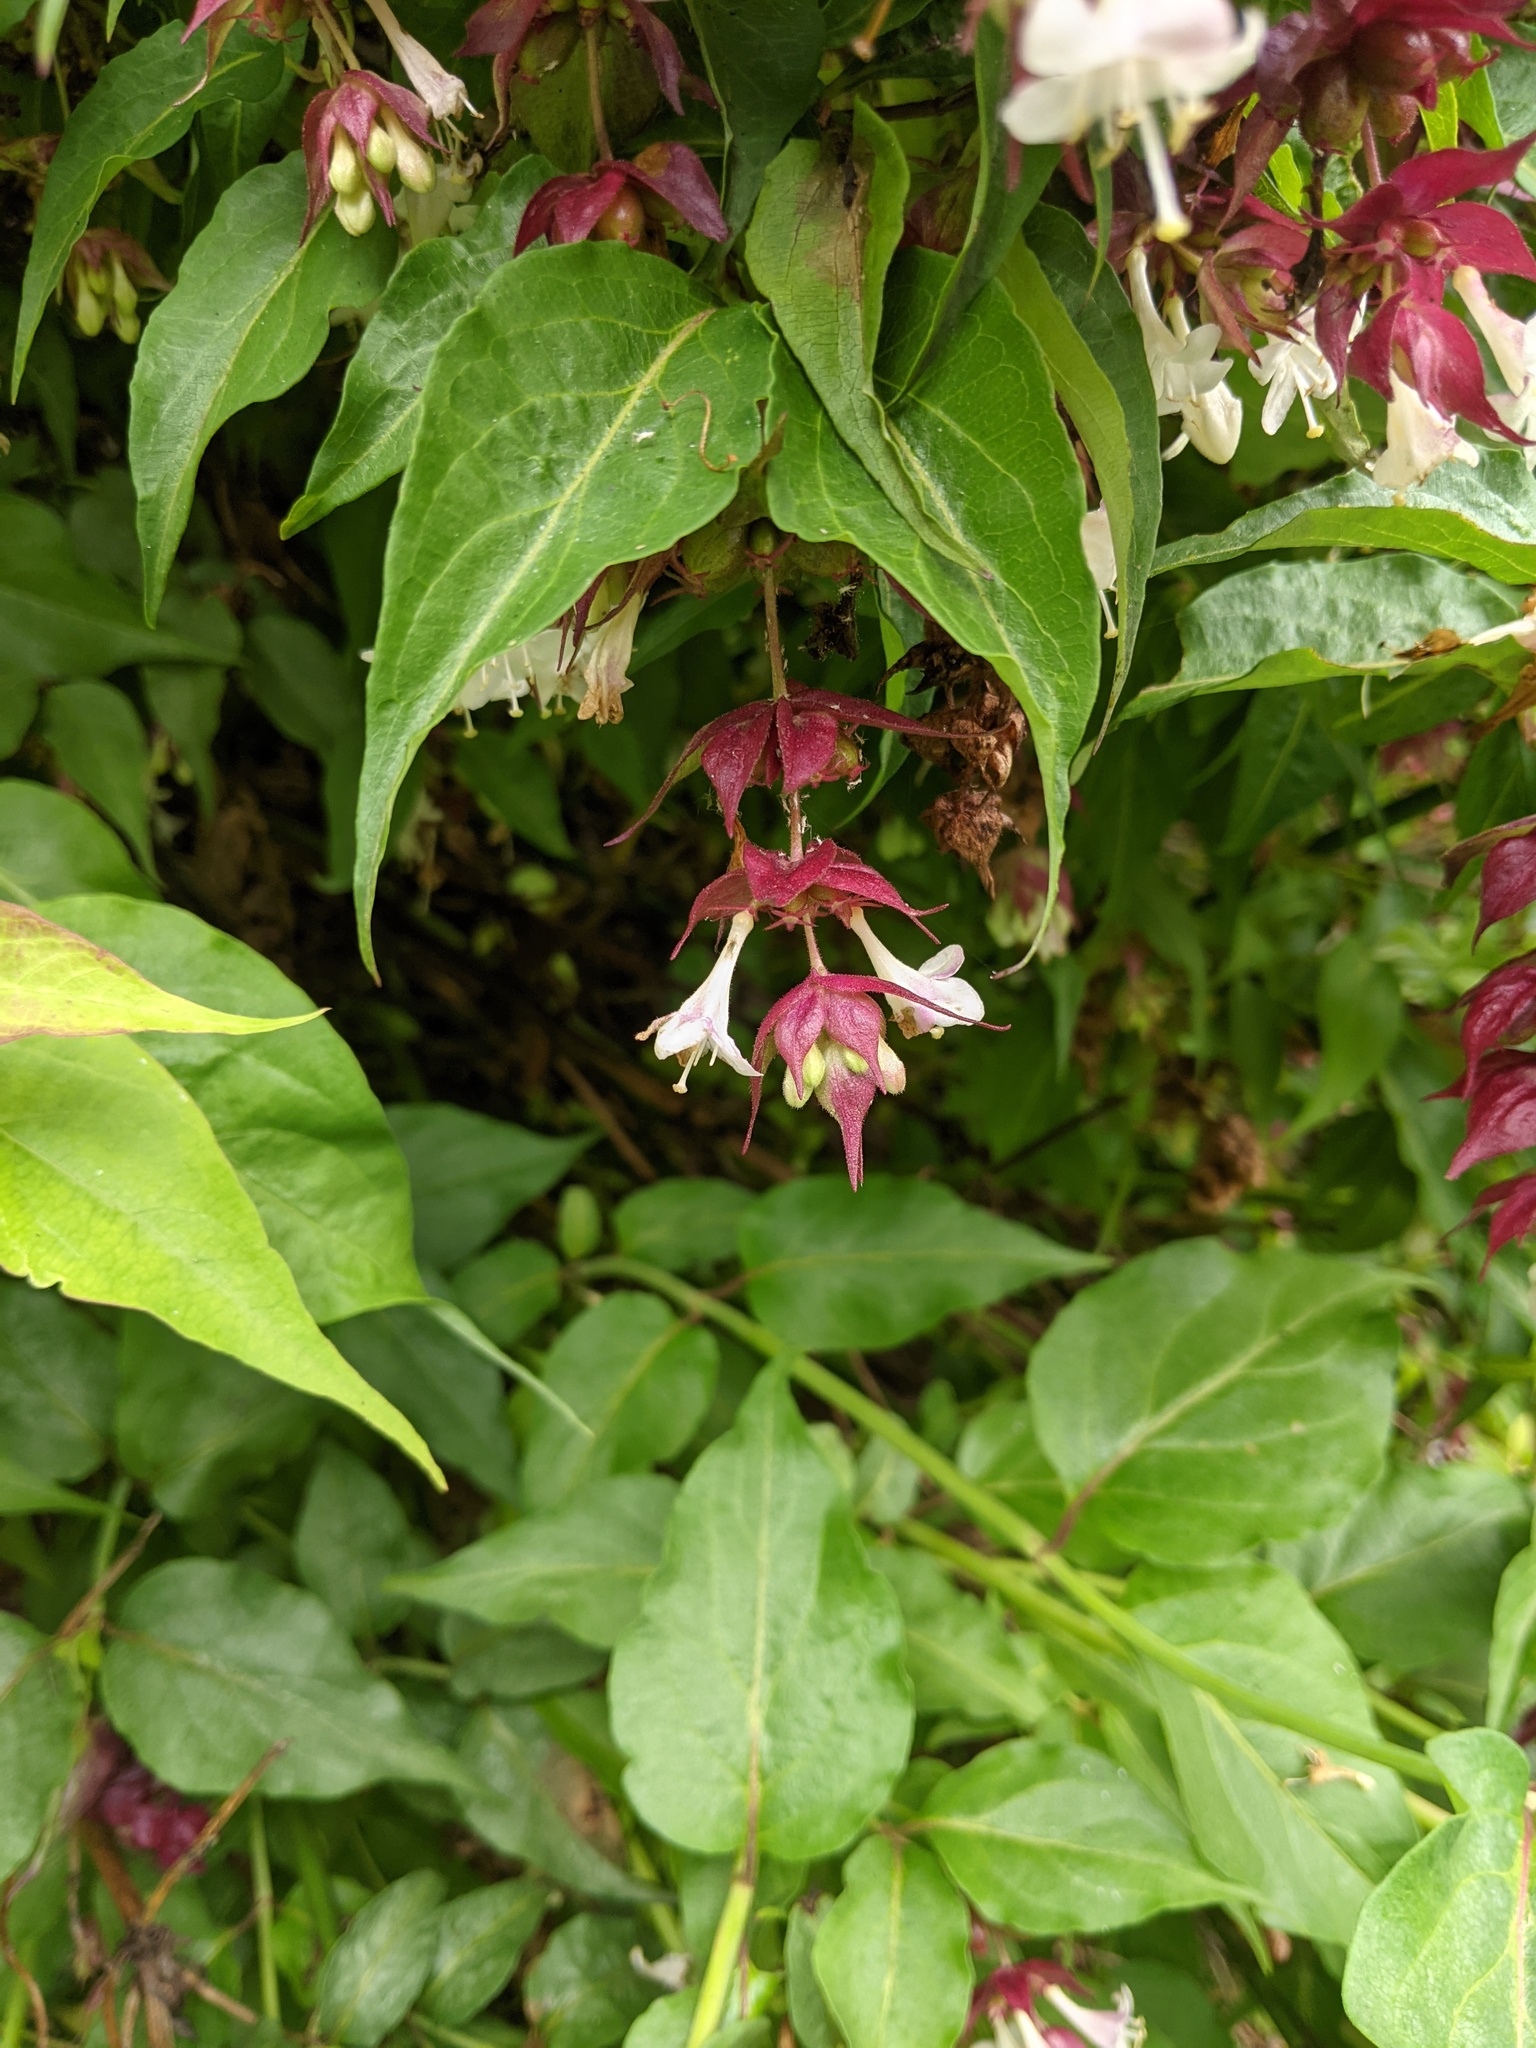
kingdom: Plantae
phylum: Tracheophyta
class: Magnoliopsida
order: Dipsacales
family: Caprifoliaceae
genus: Leycesteria
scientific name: Leycesteria formosa
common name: Himalayan honeysuckle
